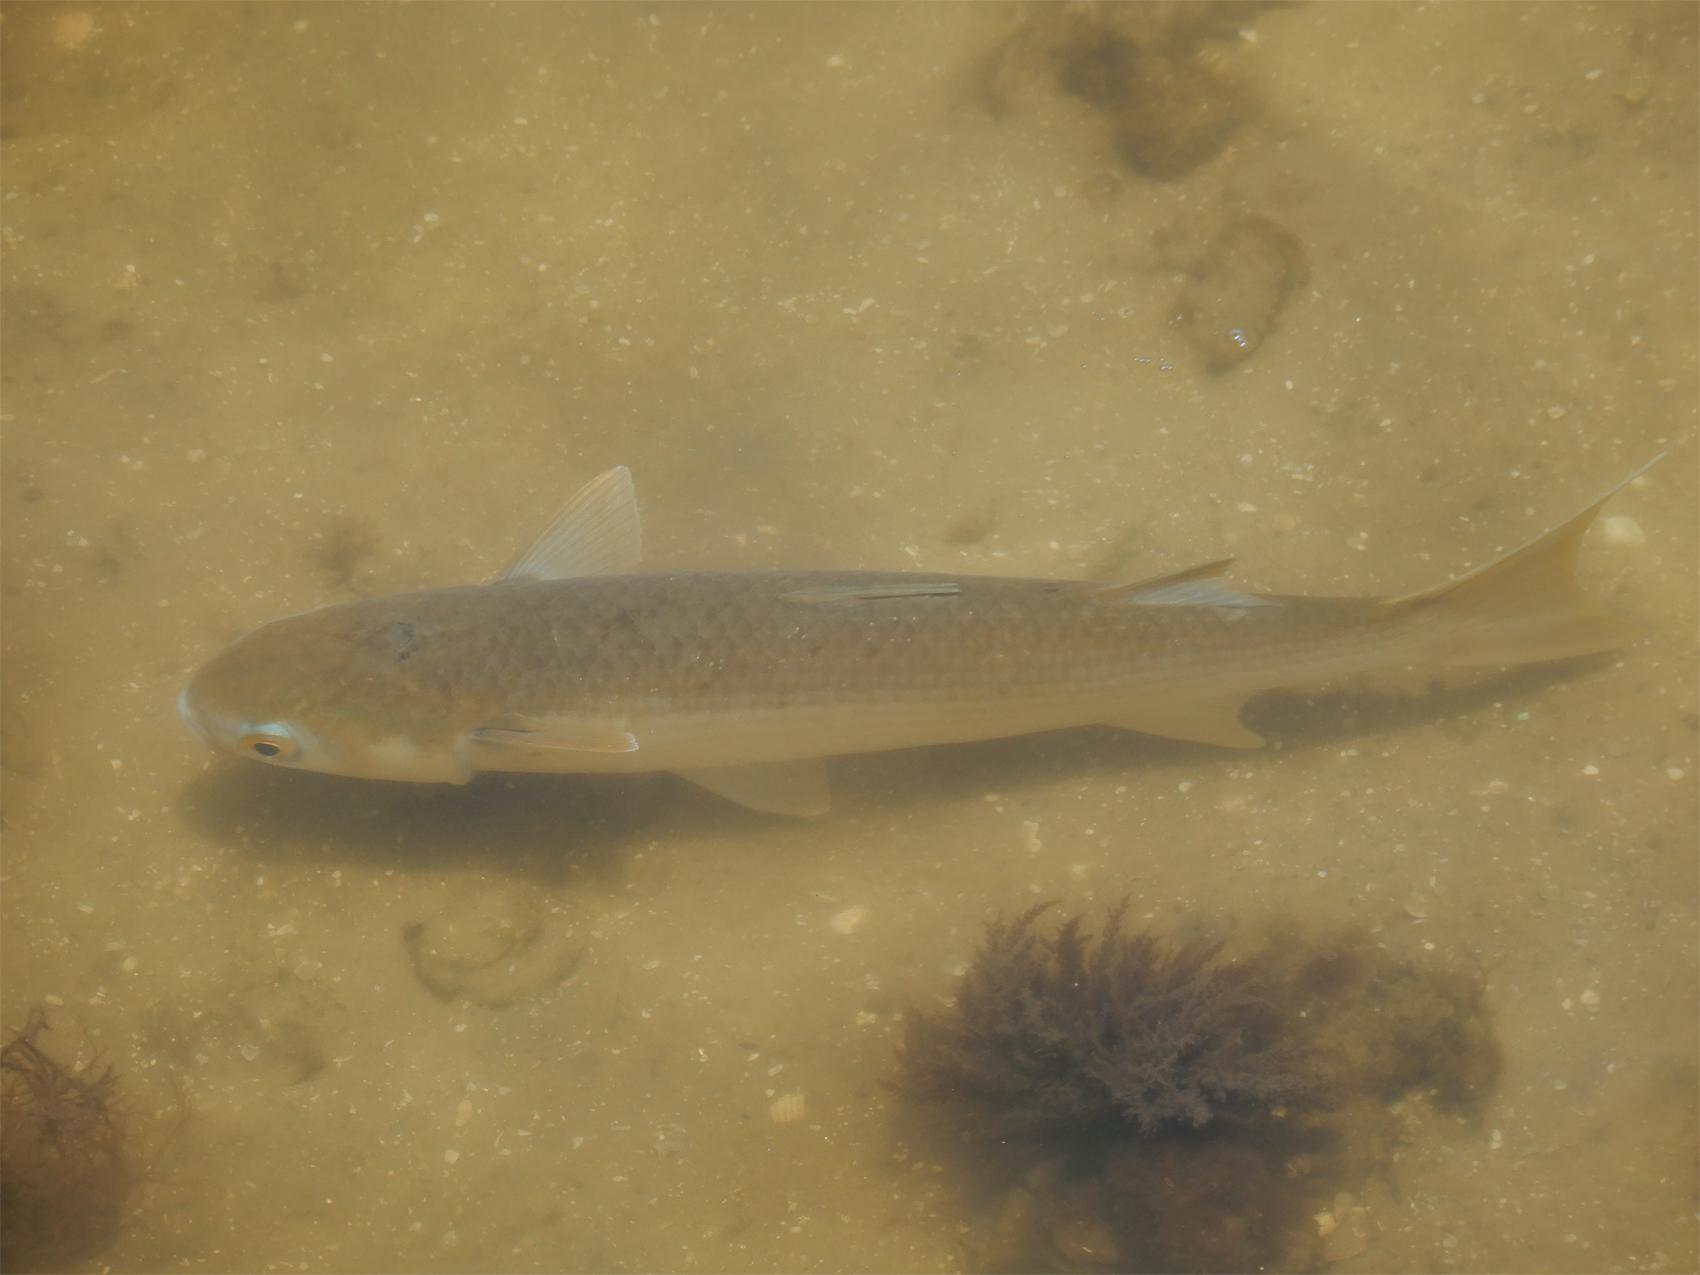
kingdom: Animalia
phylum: Chordata
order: Mugiliformes
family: Mugilidae
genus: Mugil
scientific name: Mugil cephalus
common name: Grey mullet
